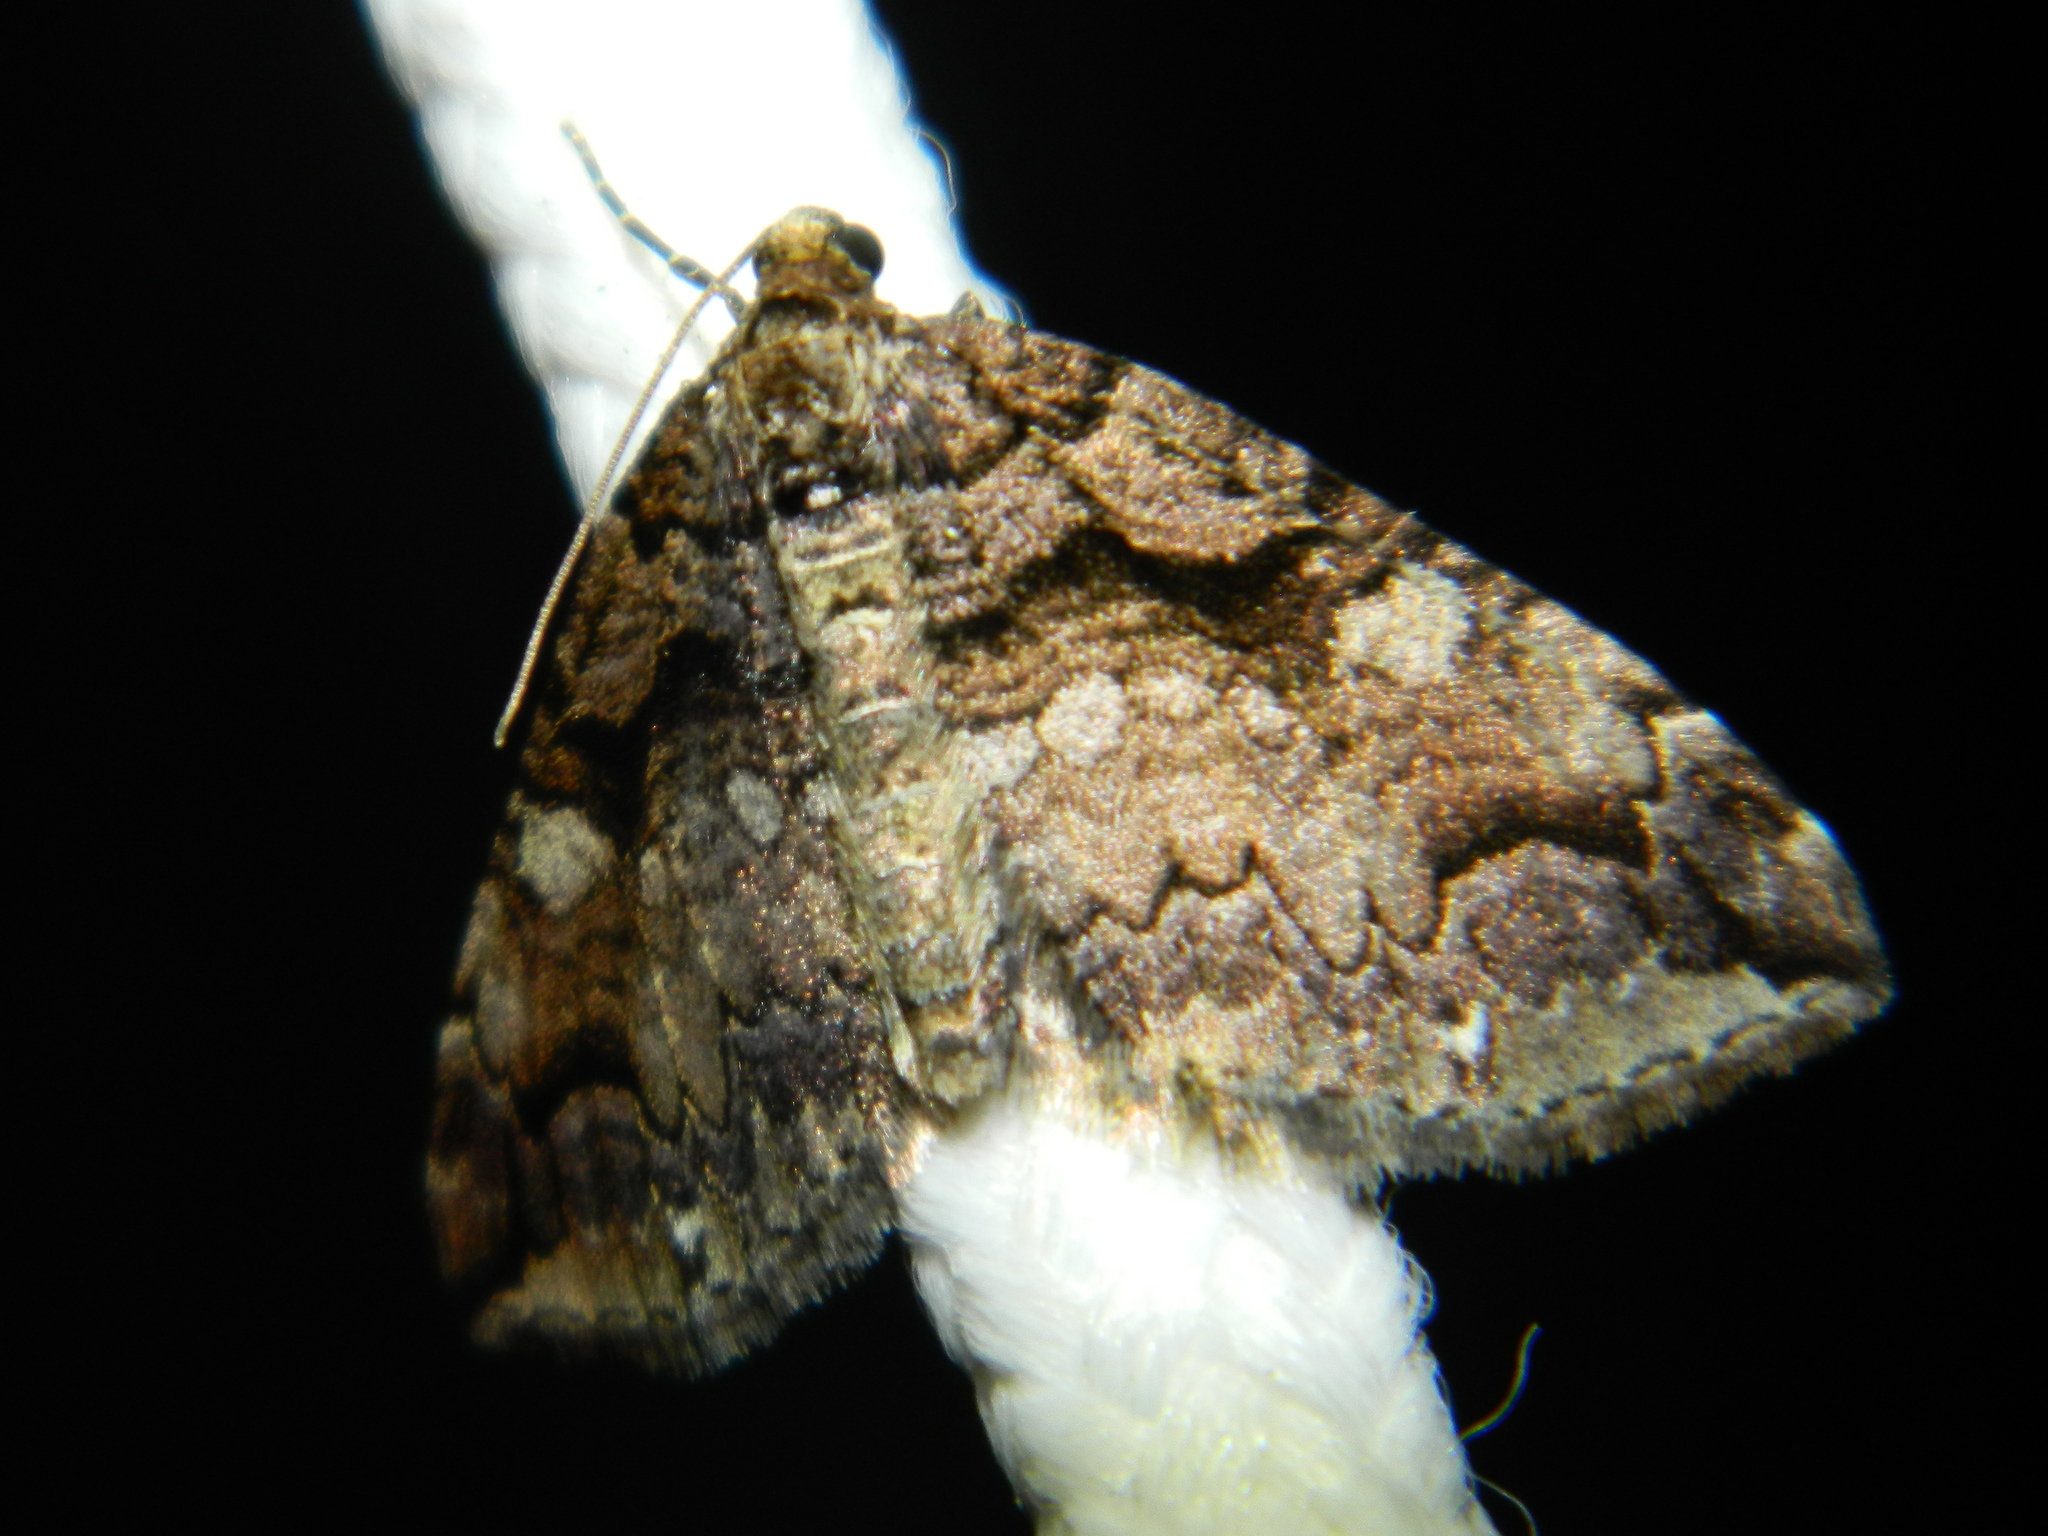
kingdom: Animalia
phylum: Arthropoda
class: Insecta
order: Lepidoptera
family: Geometridae
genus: Anticlea
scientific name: Anticlea vasiliata
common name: Variable carpet
